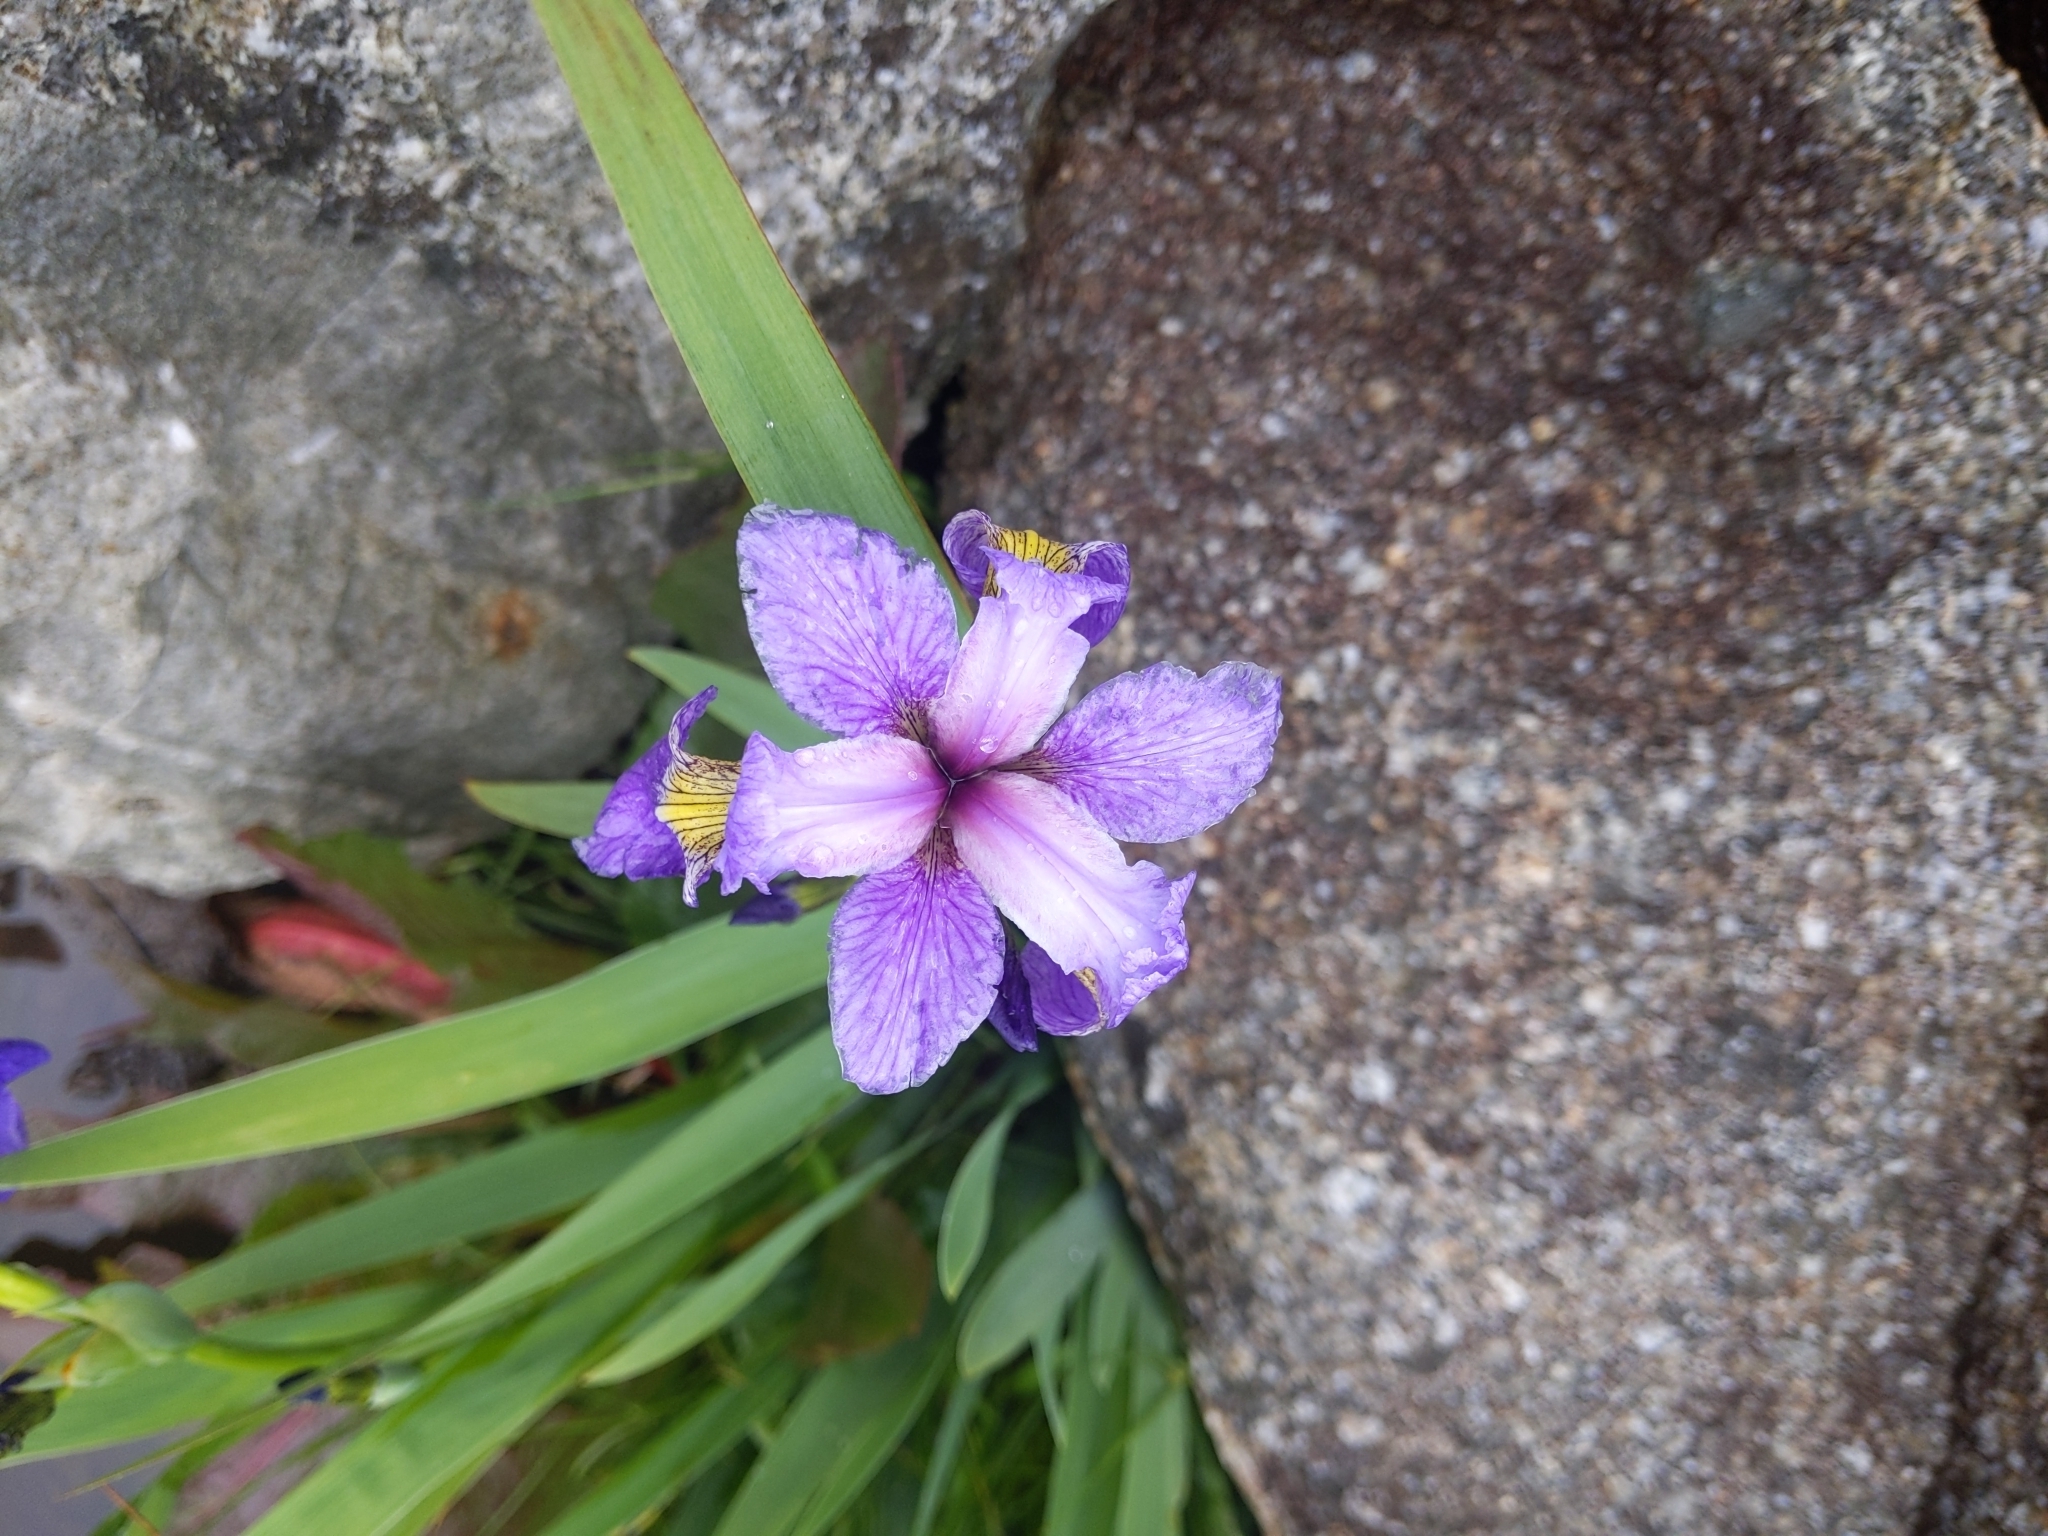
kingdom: Plantae
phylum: Tracheophyta
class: Liliopsida
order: Asparagales
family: Iridaceae
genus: Iris
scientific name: Iris versicolor
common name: Purple iris
